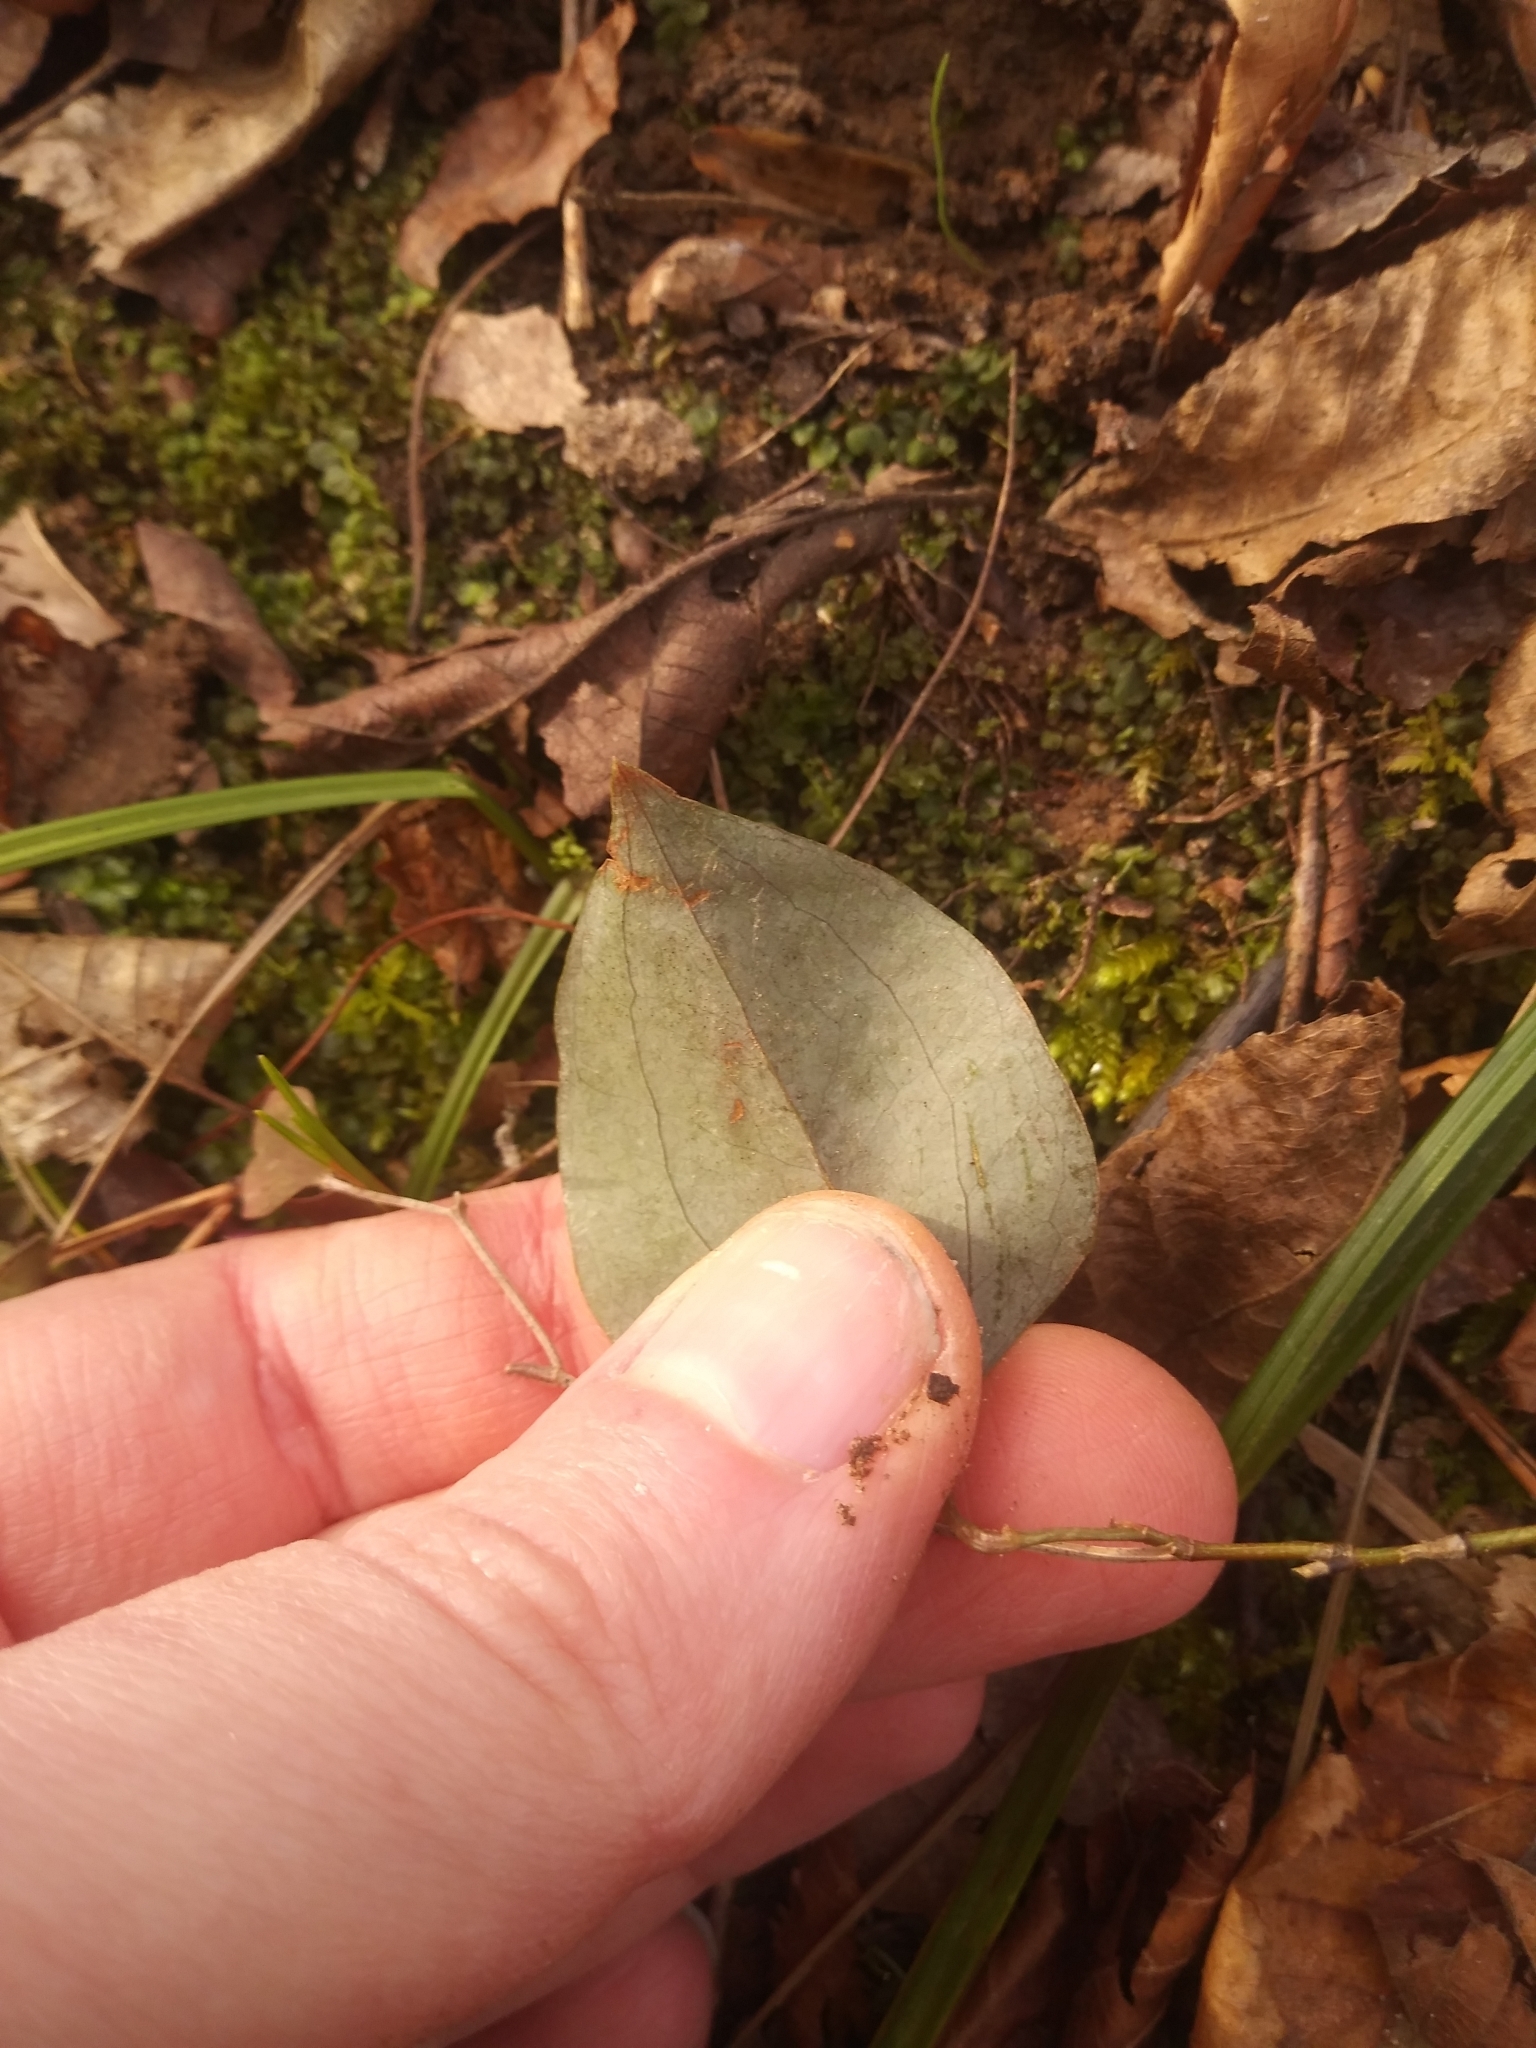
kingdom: Plantae
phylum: Tracheophyta
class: Liliopsida
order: Liliales
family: Smilacaceae
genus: Smilax
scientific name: Smilax glauca
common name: Cat greenbrier
